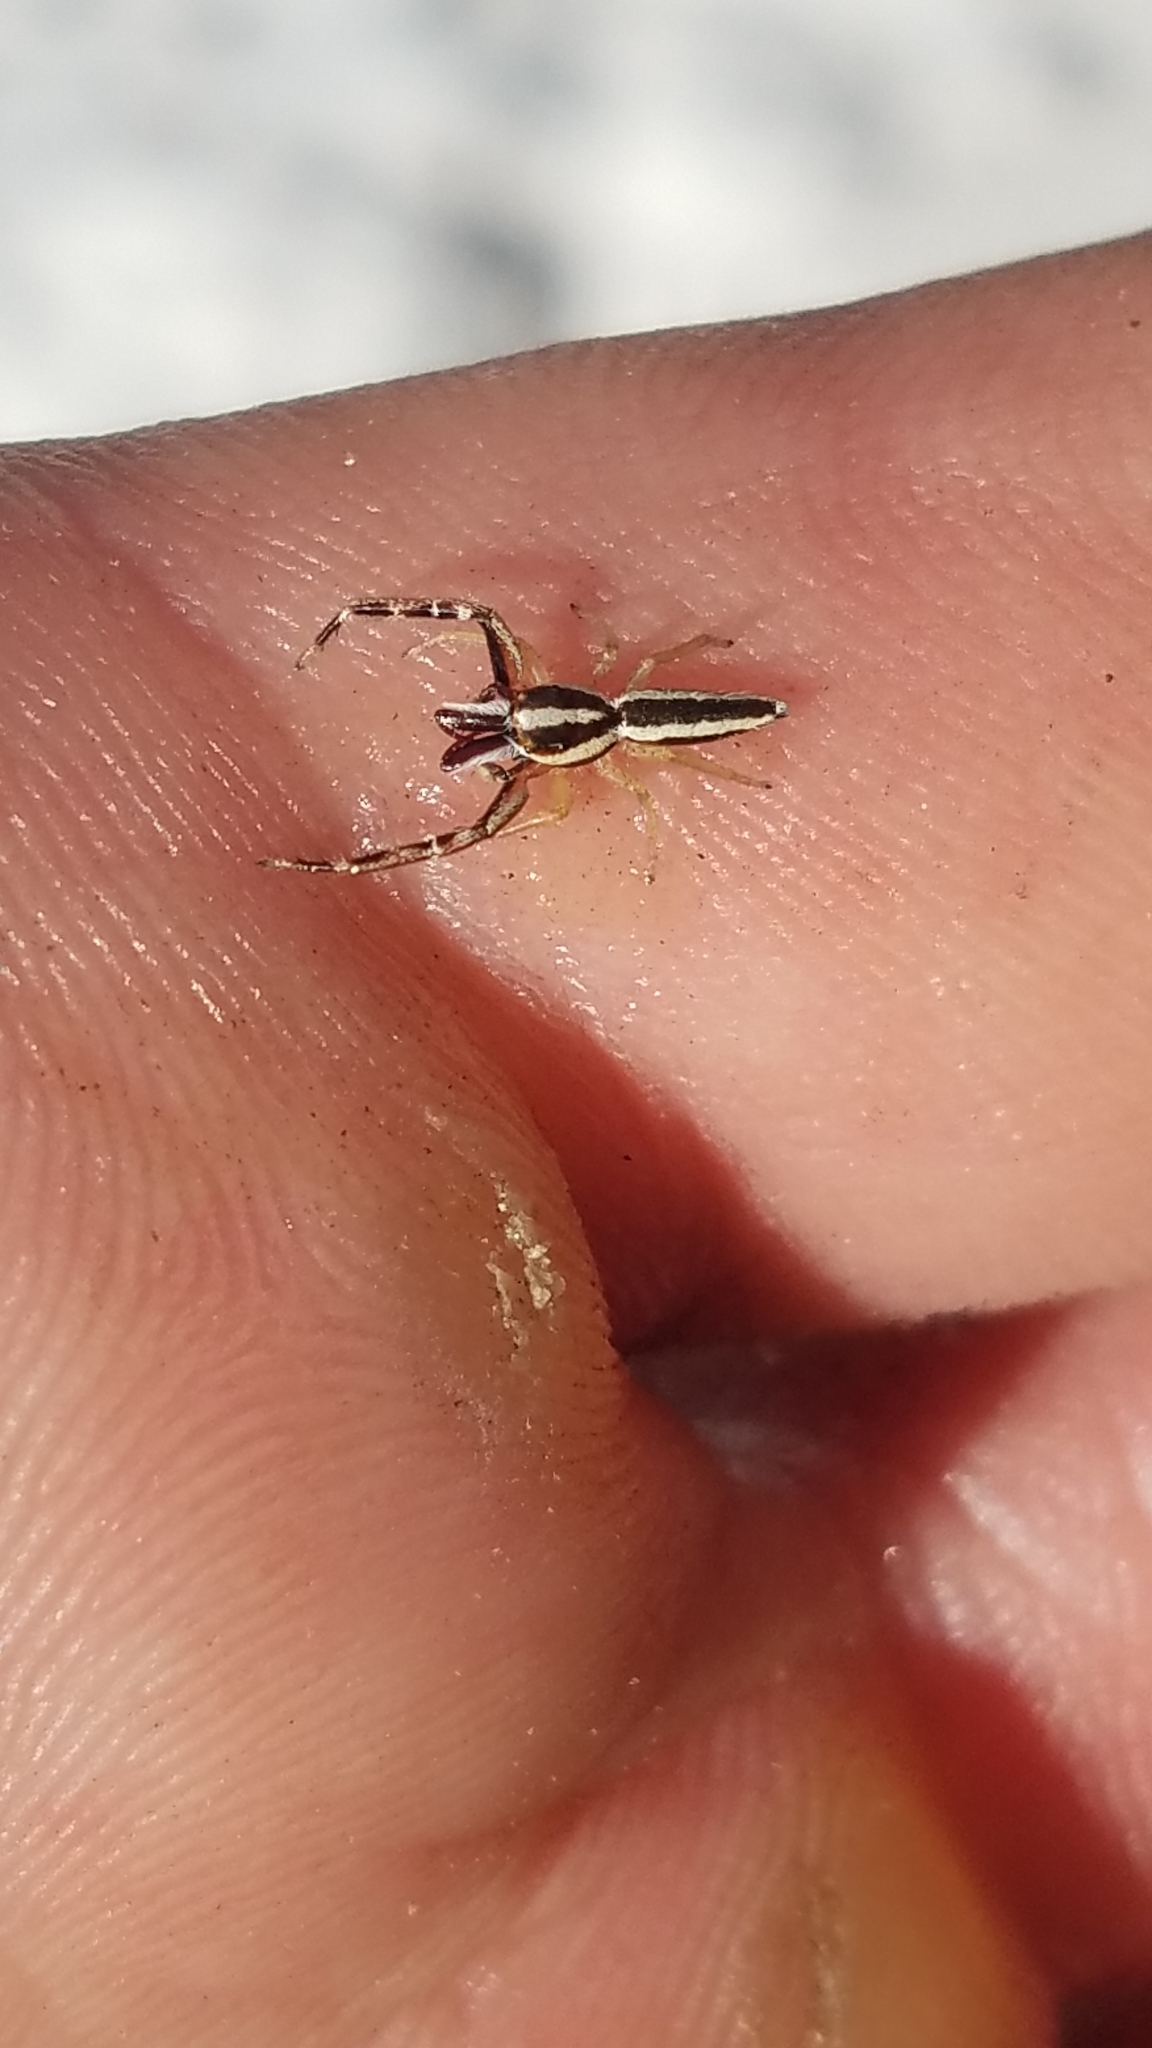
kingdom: Animalia
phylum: Arthropoda
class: Arachnida
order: Araneae
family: Salticidae
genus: Hentzia
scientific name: Hentzia grenada
